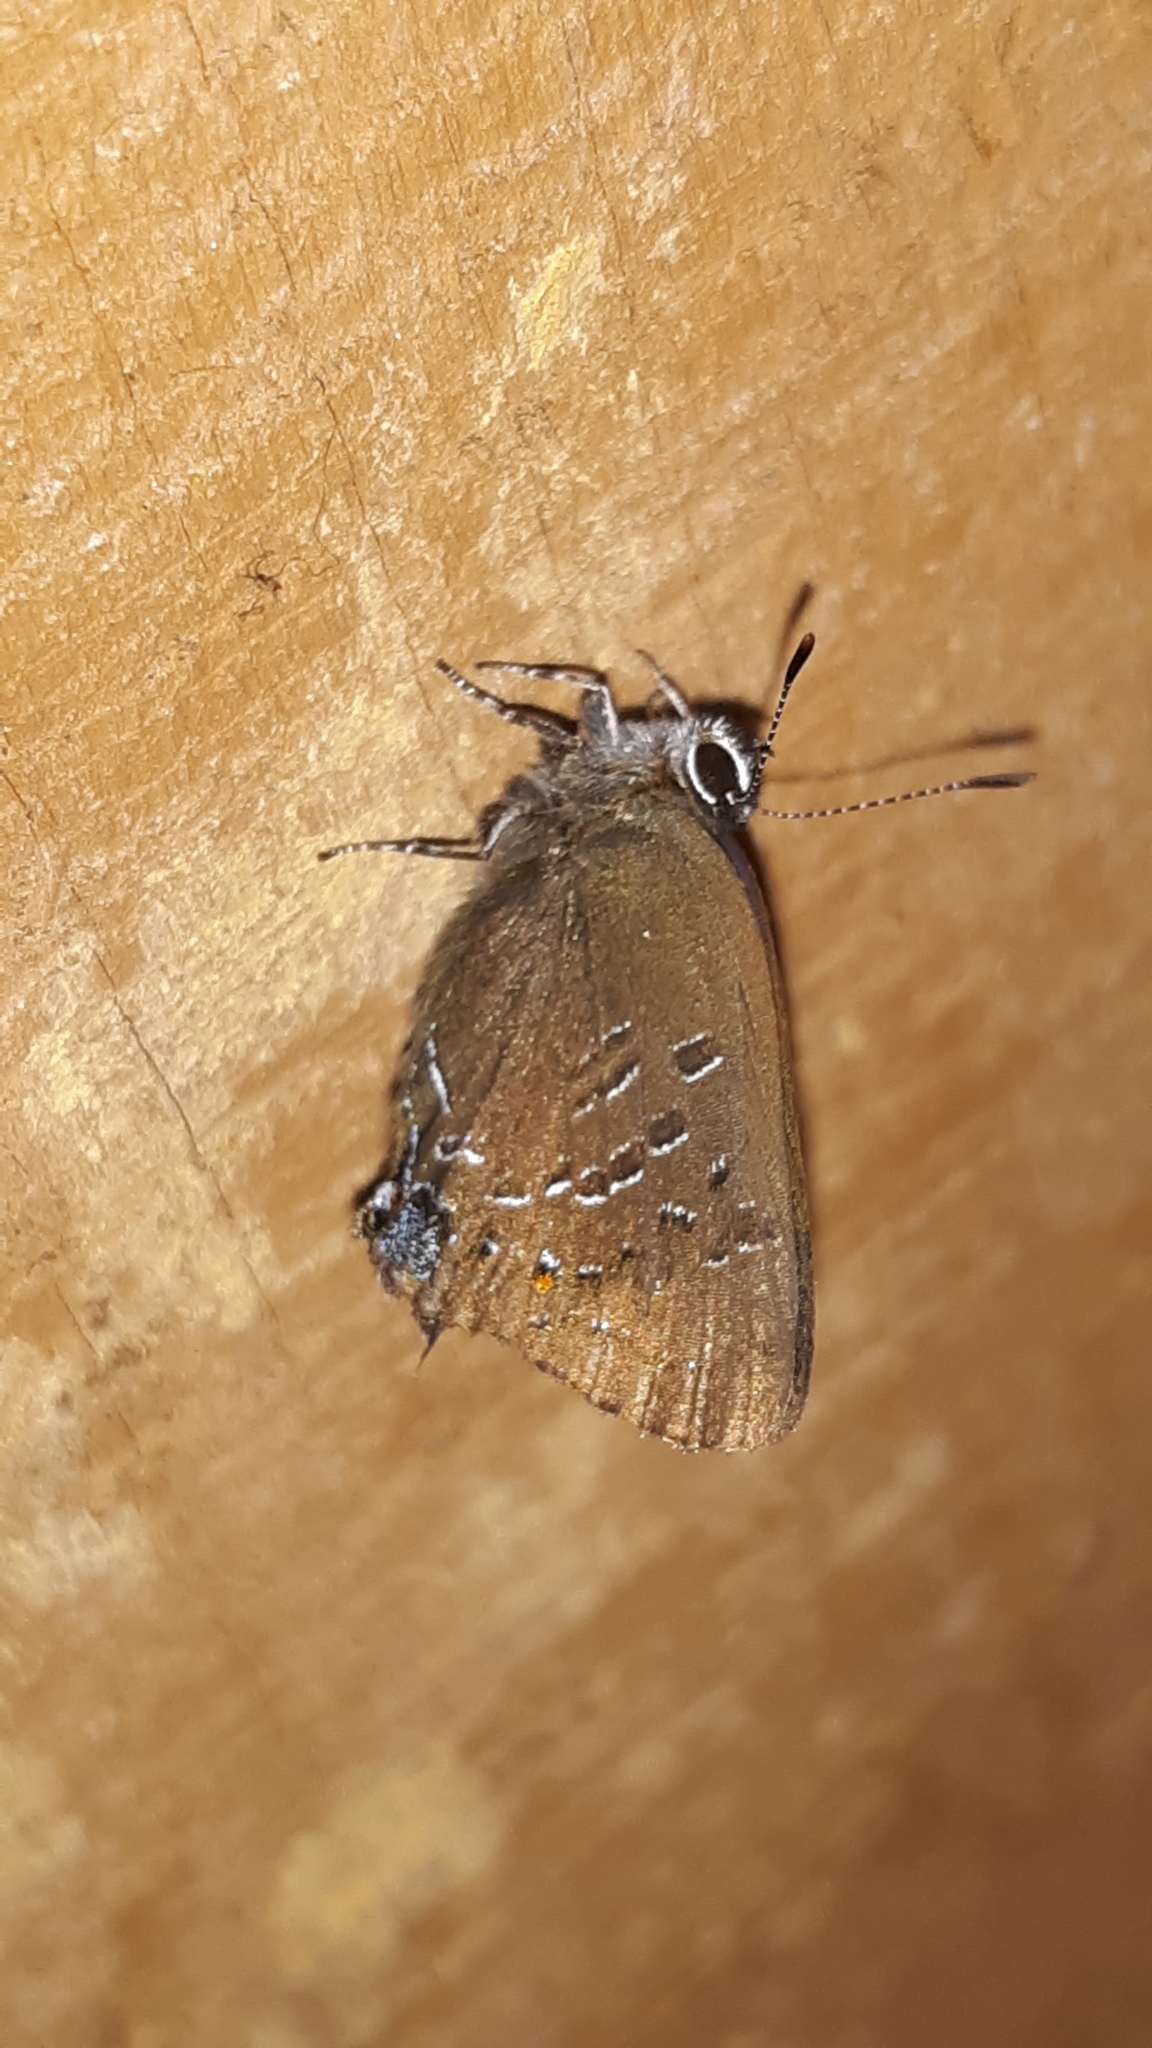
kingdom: Animalia
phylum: Arthropoda
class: Insecta
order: Lepidoptera
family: Lycaenidae
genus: Satyrium
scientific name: Satyrium calanus
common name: Banded hairstreak
